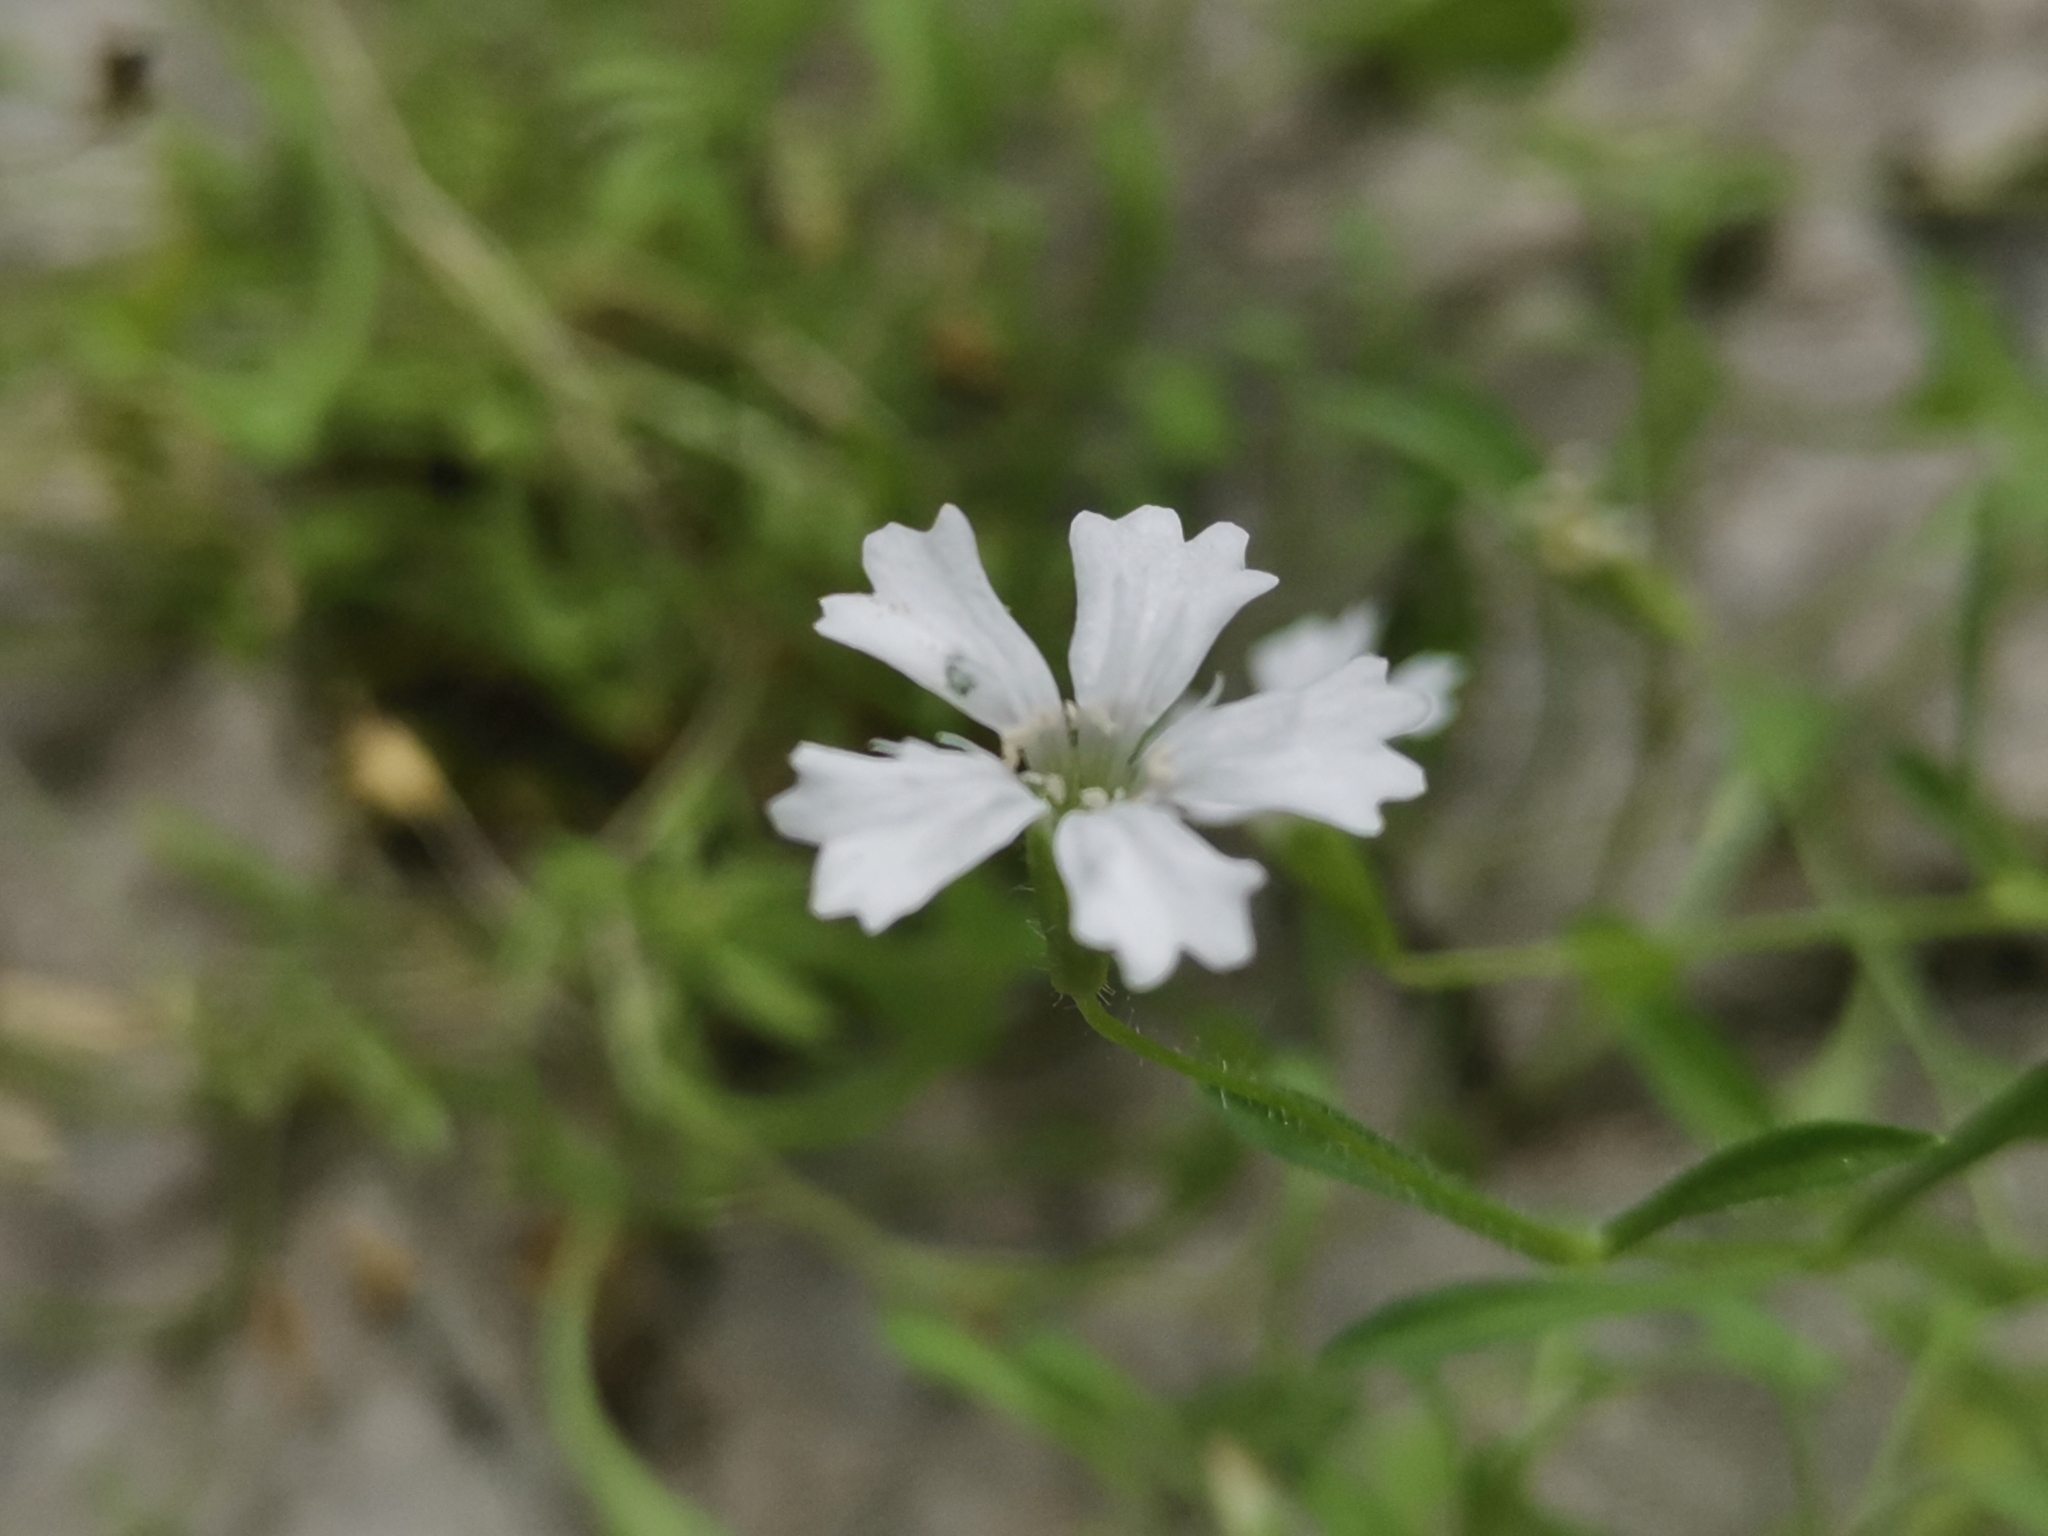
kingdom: Plantae
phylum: Tracheophyta
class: Magnoliopsida
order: Caryophyllales
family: Caryophyllaceae
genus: Heliosperma
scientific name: Heliosperma veselskyi
